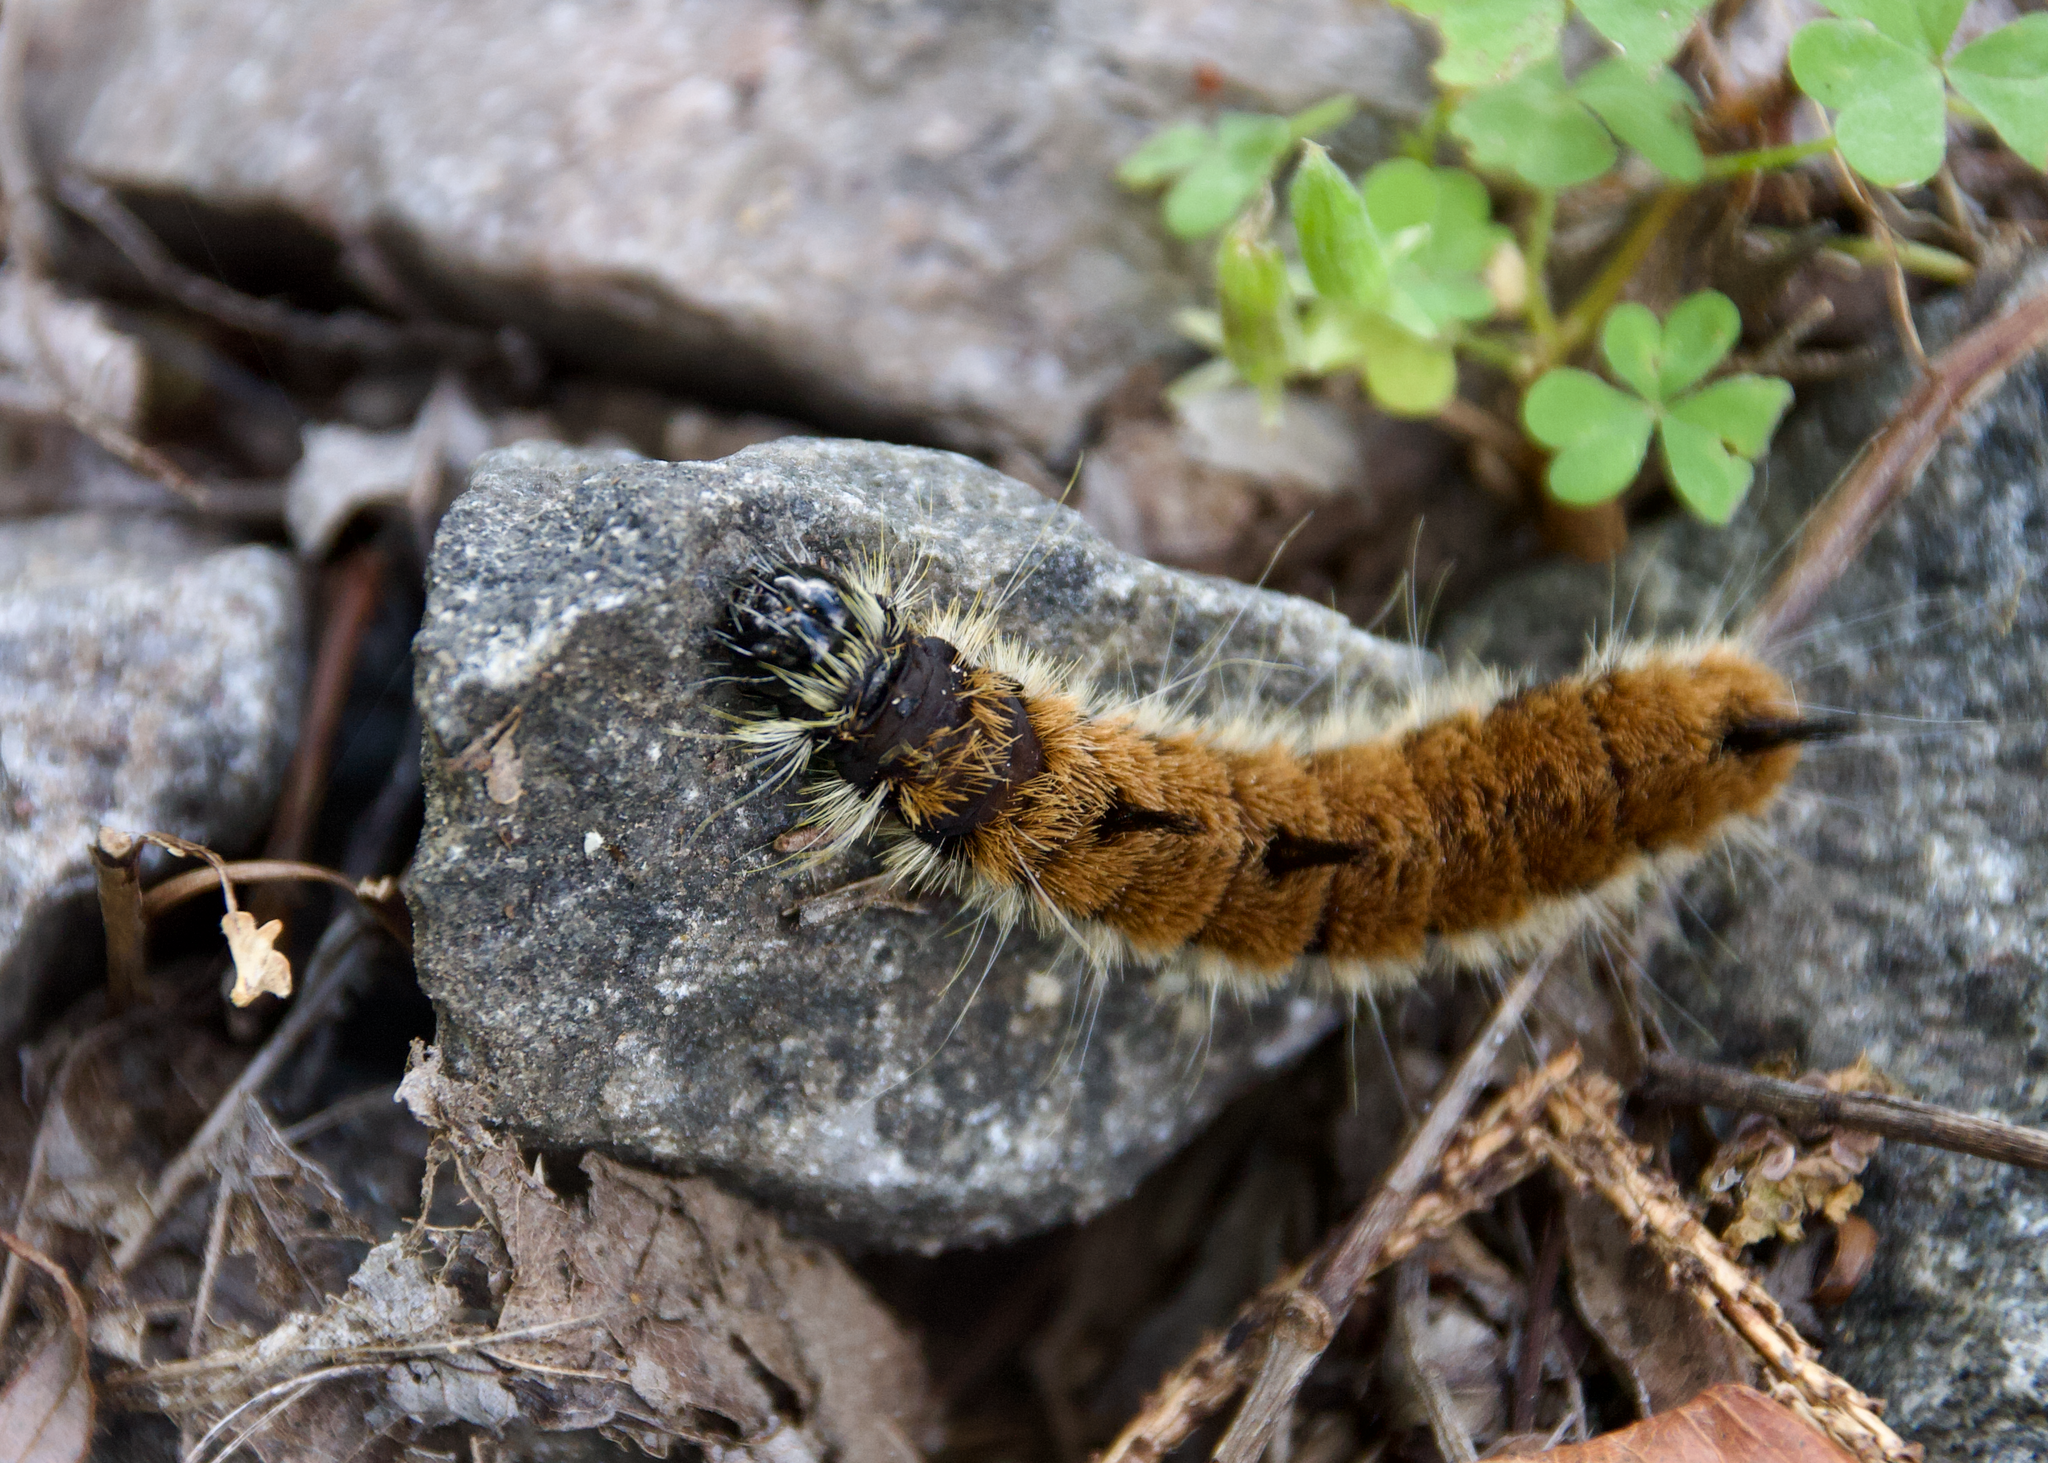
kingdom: Animalia
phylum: Arthropoda
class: Insecta
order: Lepidoptera
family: Noctuidae
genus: Acronicta
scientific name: Acronicta insita
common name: Large gray dagger
